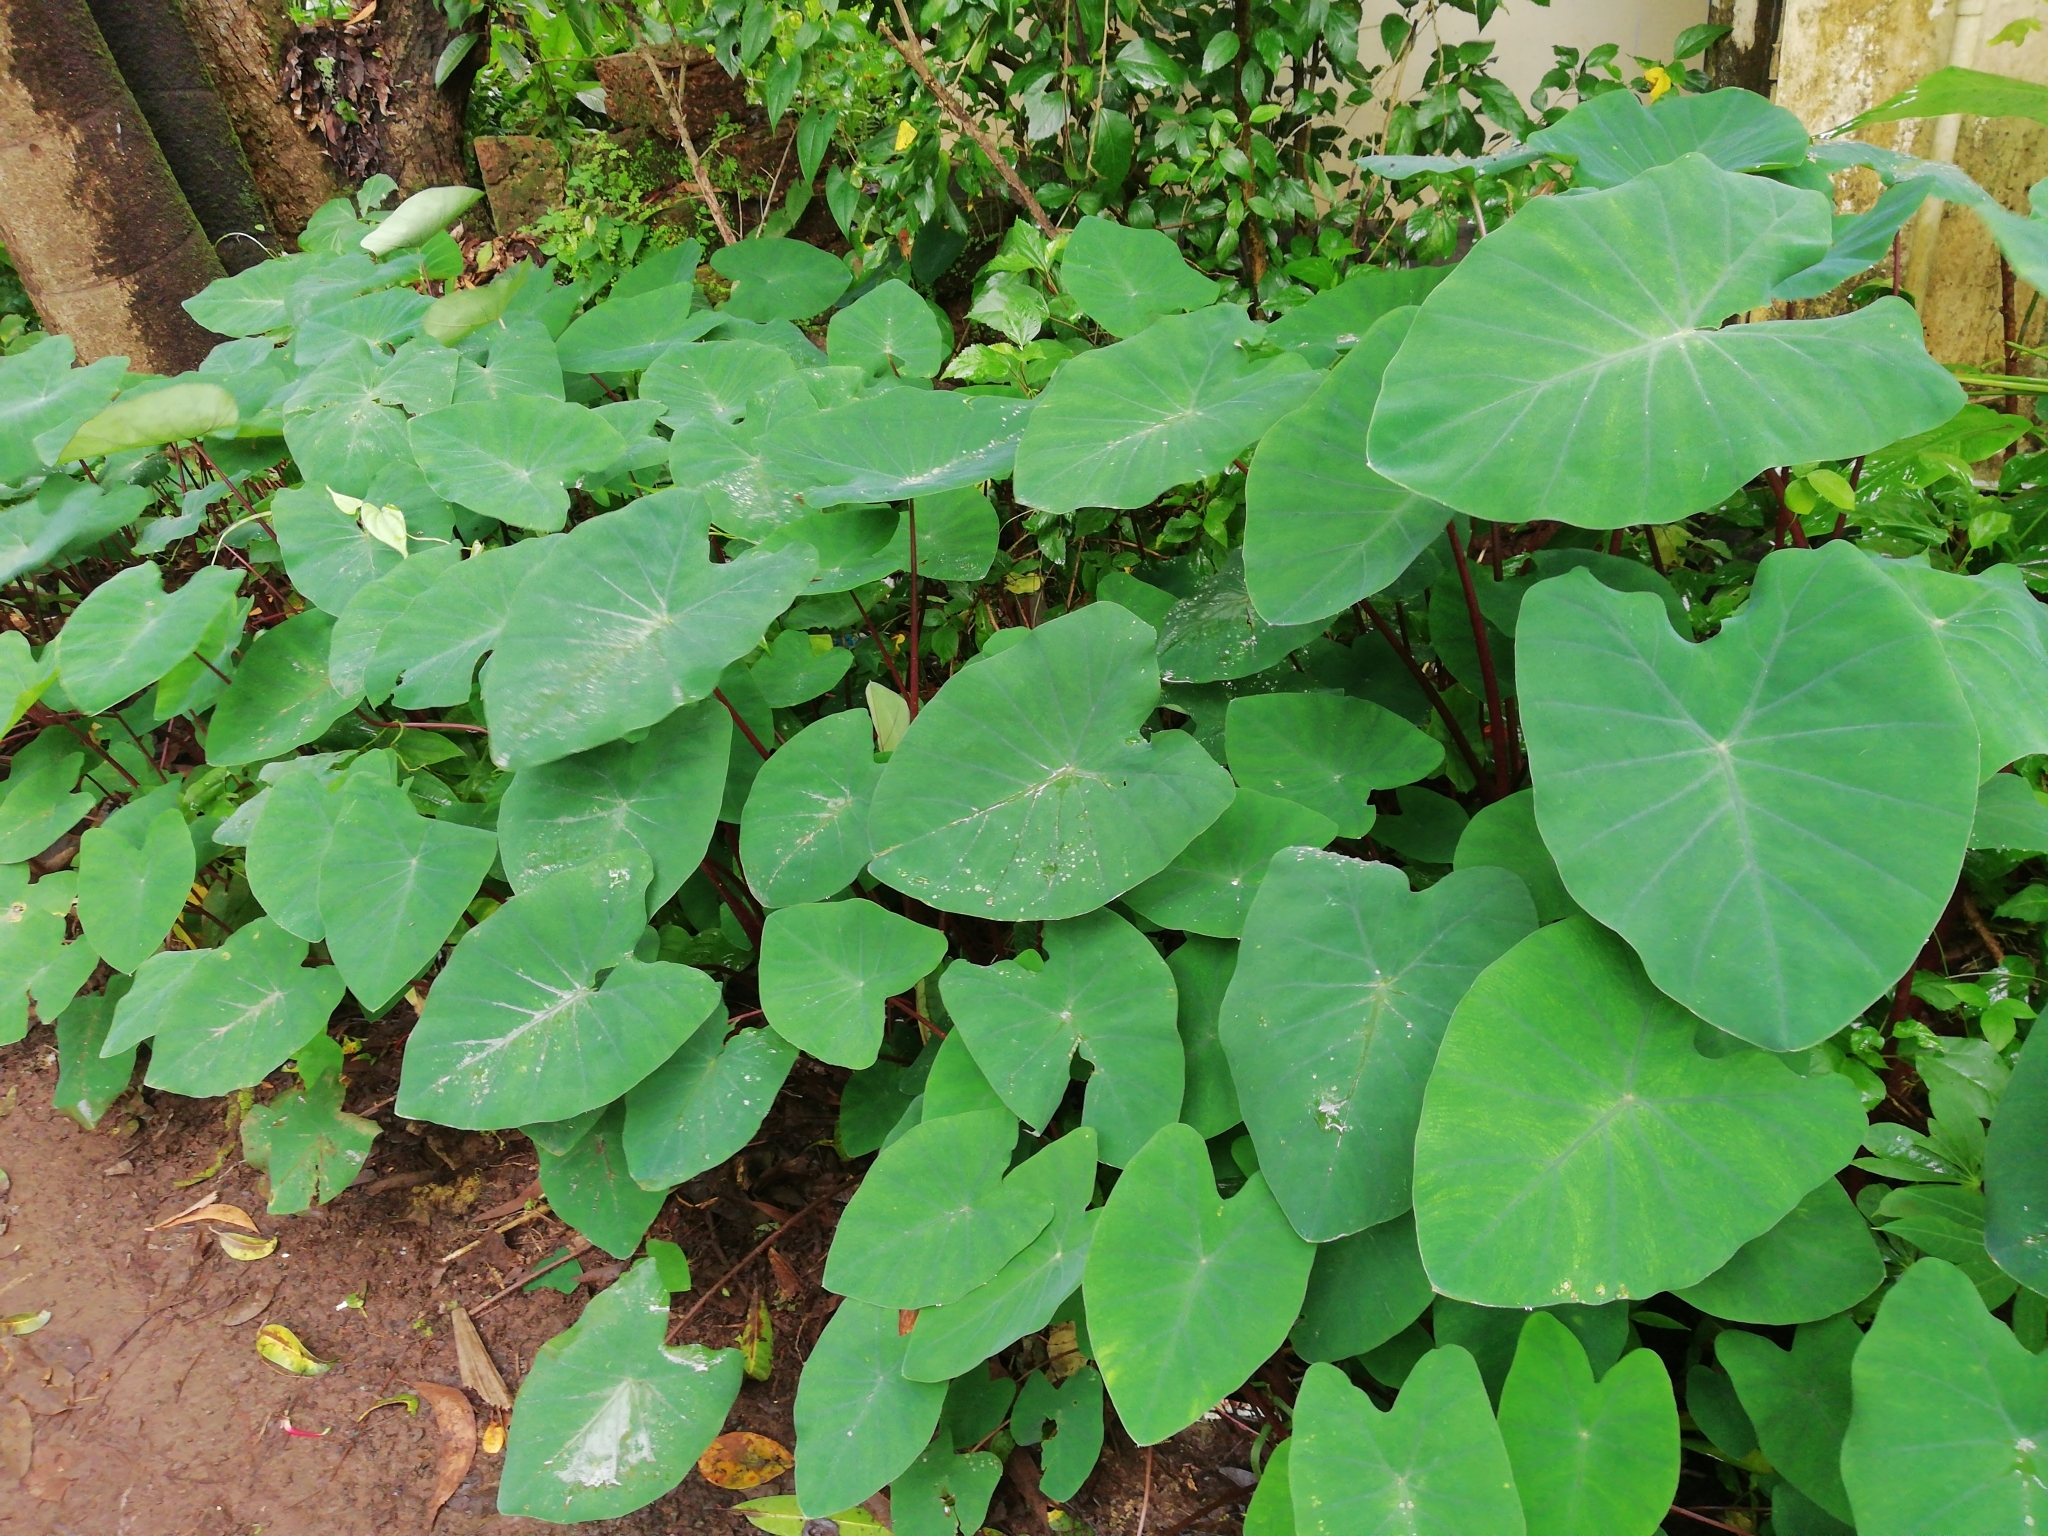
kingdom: Plantae
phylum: Tracheophyta
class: Liliopsida
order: Alismatales
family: Araceae
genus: Colocasia
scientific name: Colocasia esculenta
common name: Taro
